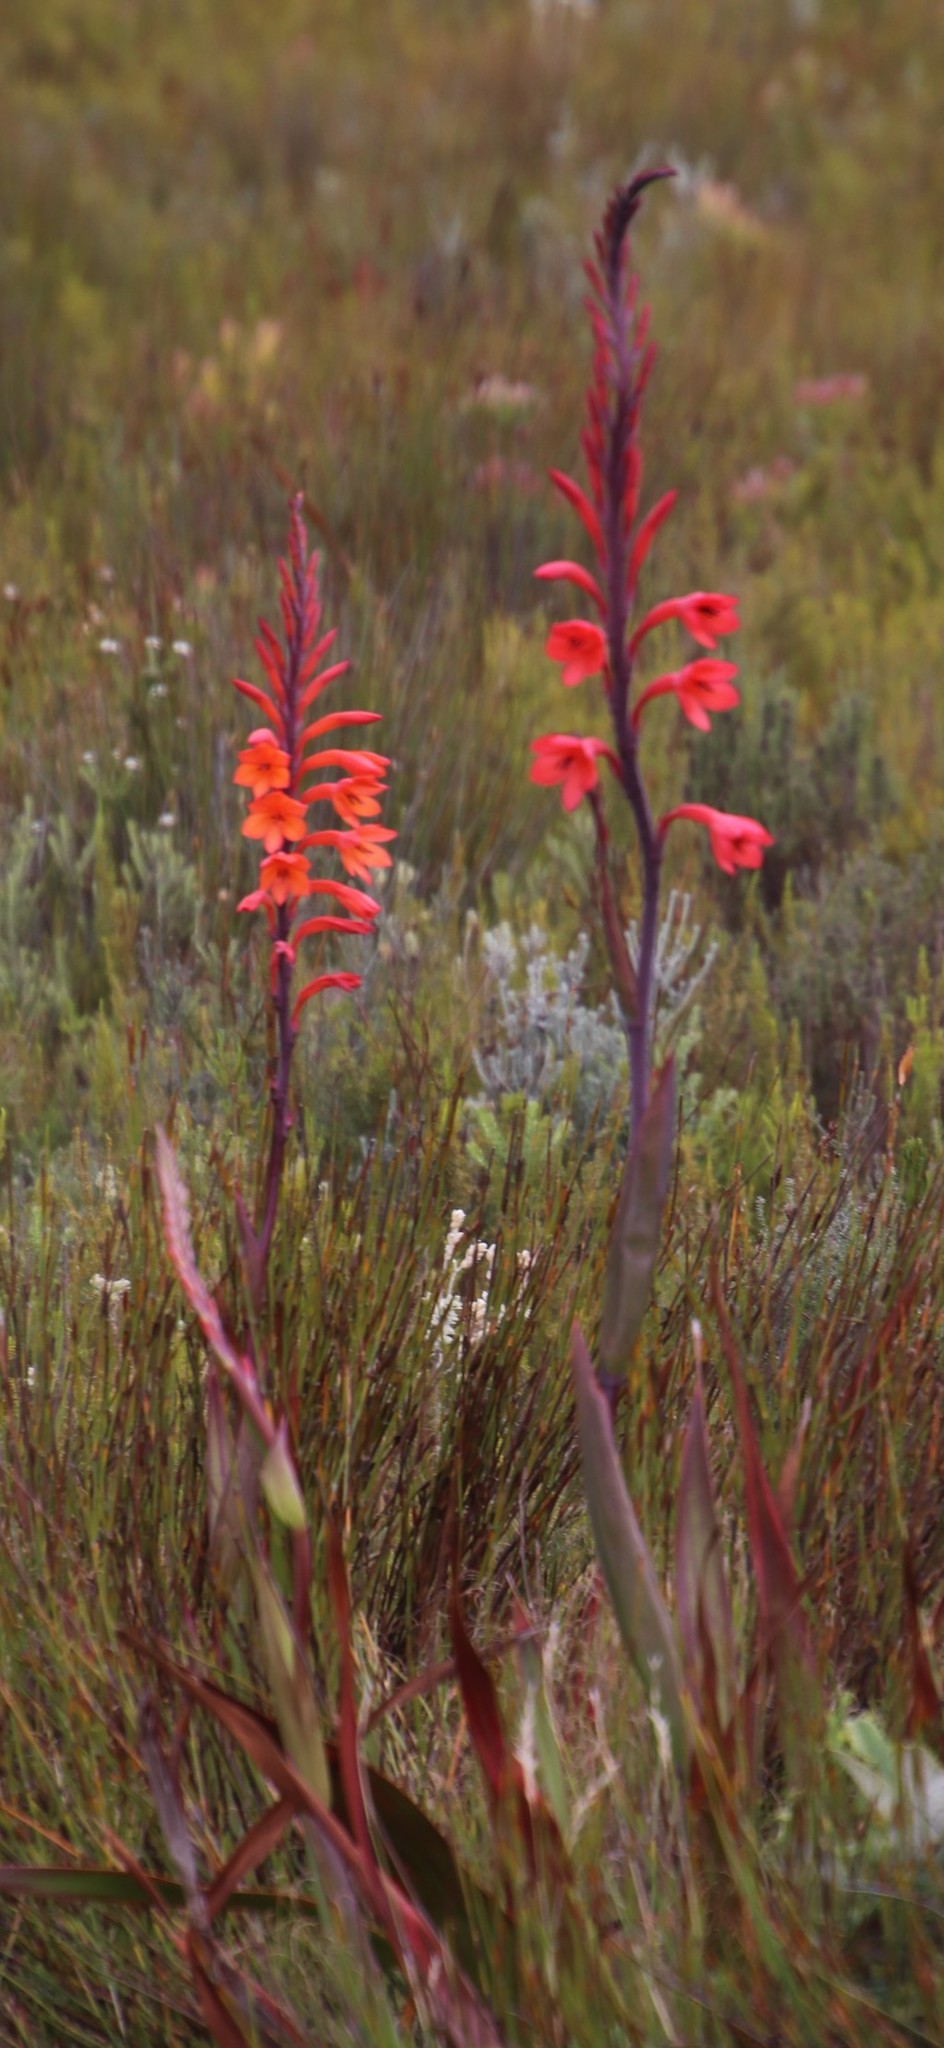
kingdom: Plantae
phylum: Tracheophyta
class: Liliopsida
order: Asparagales
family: Iridaceae
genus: Watsonia
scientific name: Watsonia tabularis
